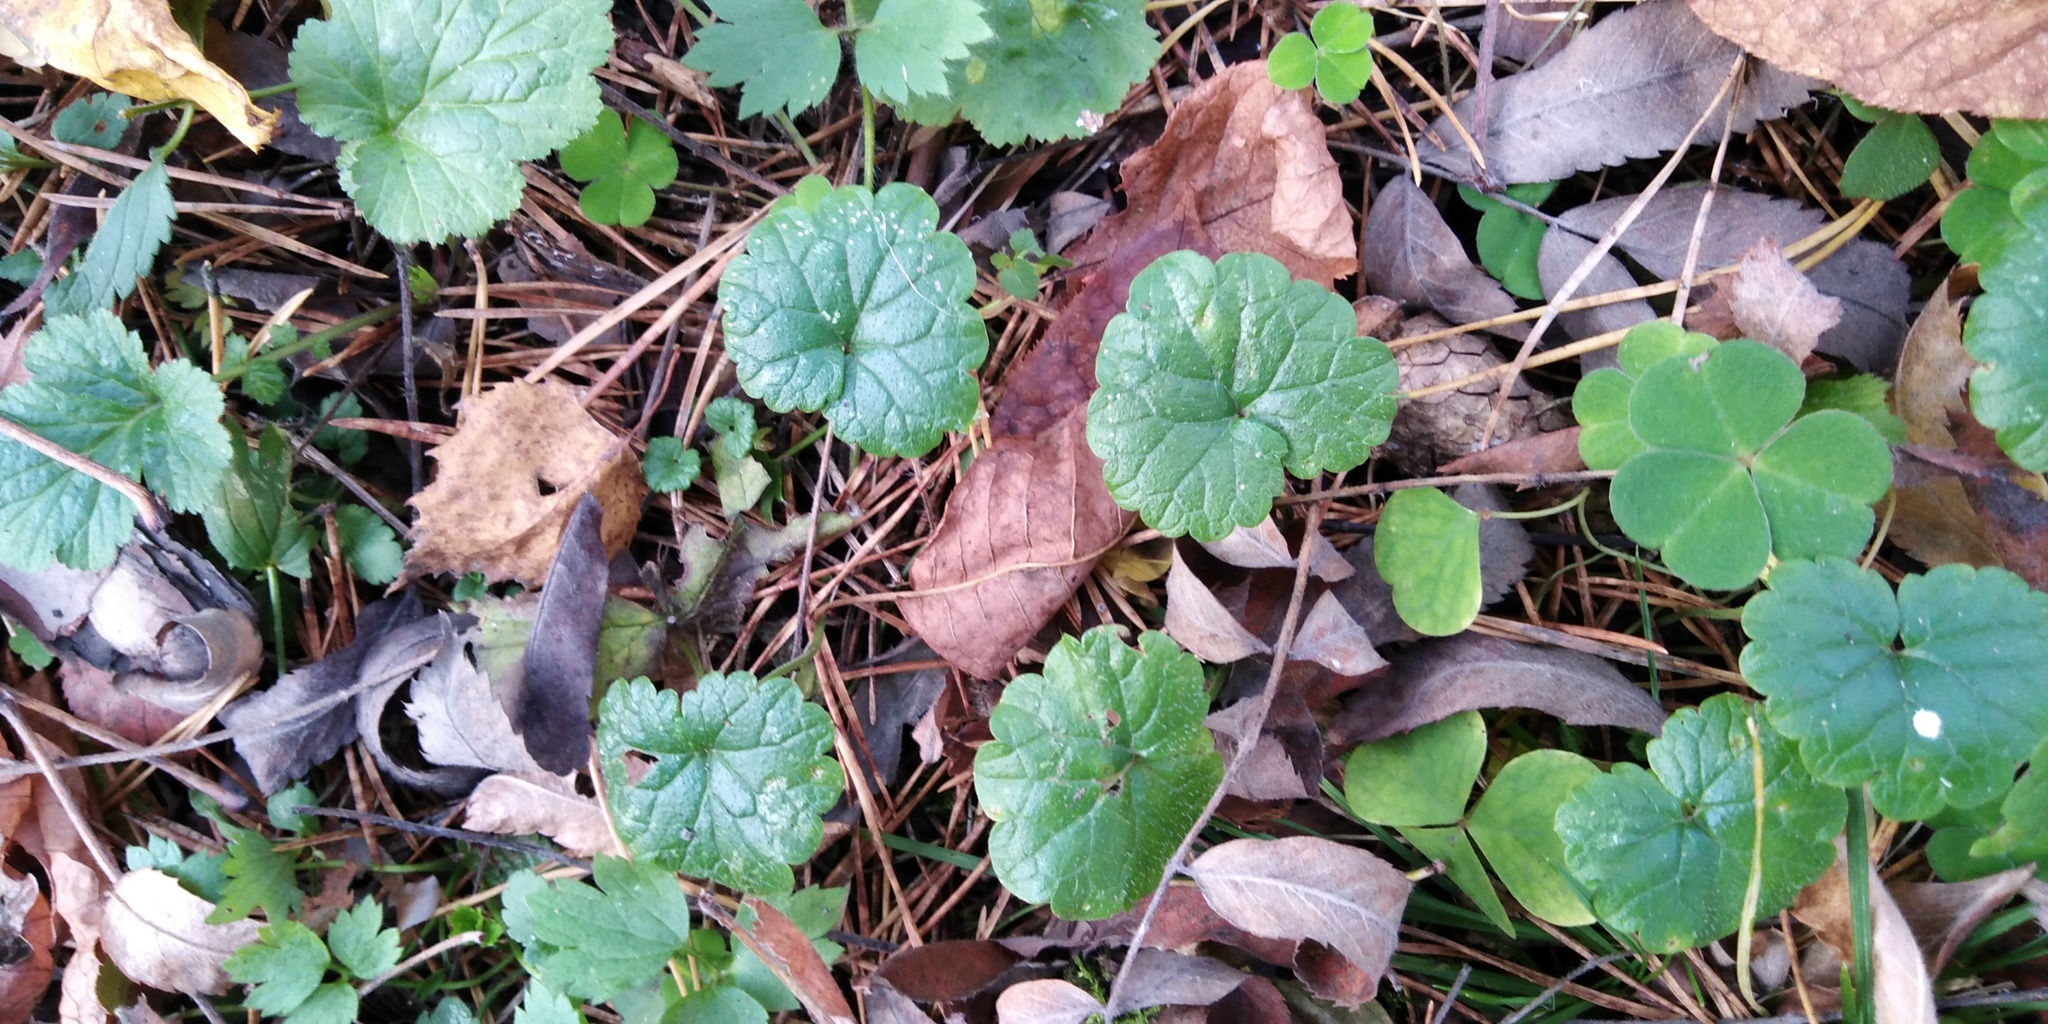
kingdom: Plantae
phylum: Tracheophyta
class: Magnoliopsida
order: Lamiales
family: Lamiaceae
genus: Glechoma
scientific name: Glechoma hederacea
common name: Ground ivy
